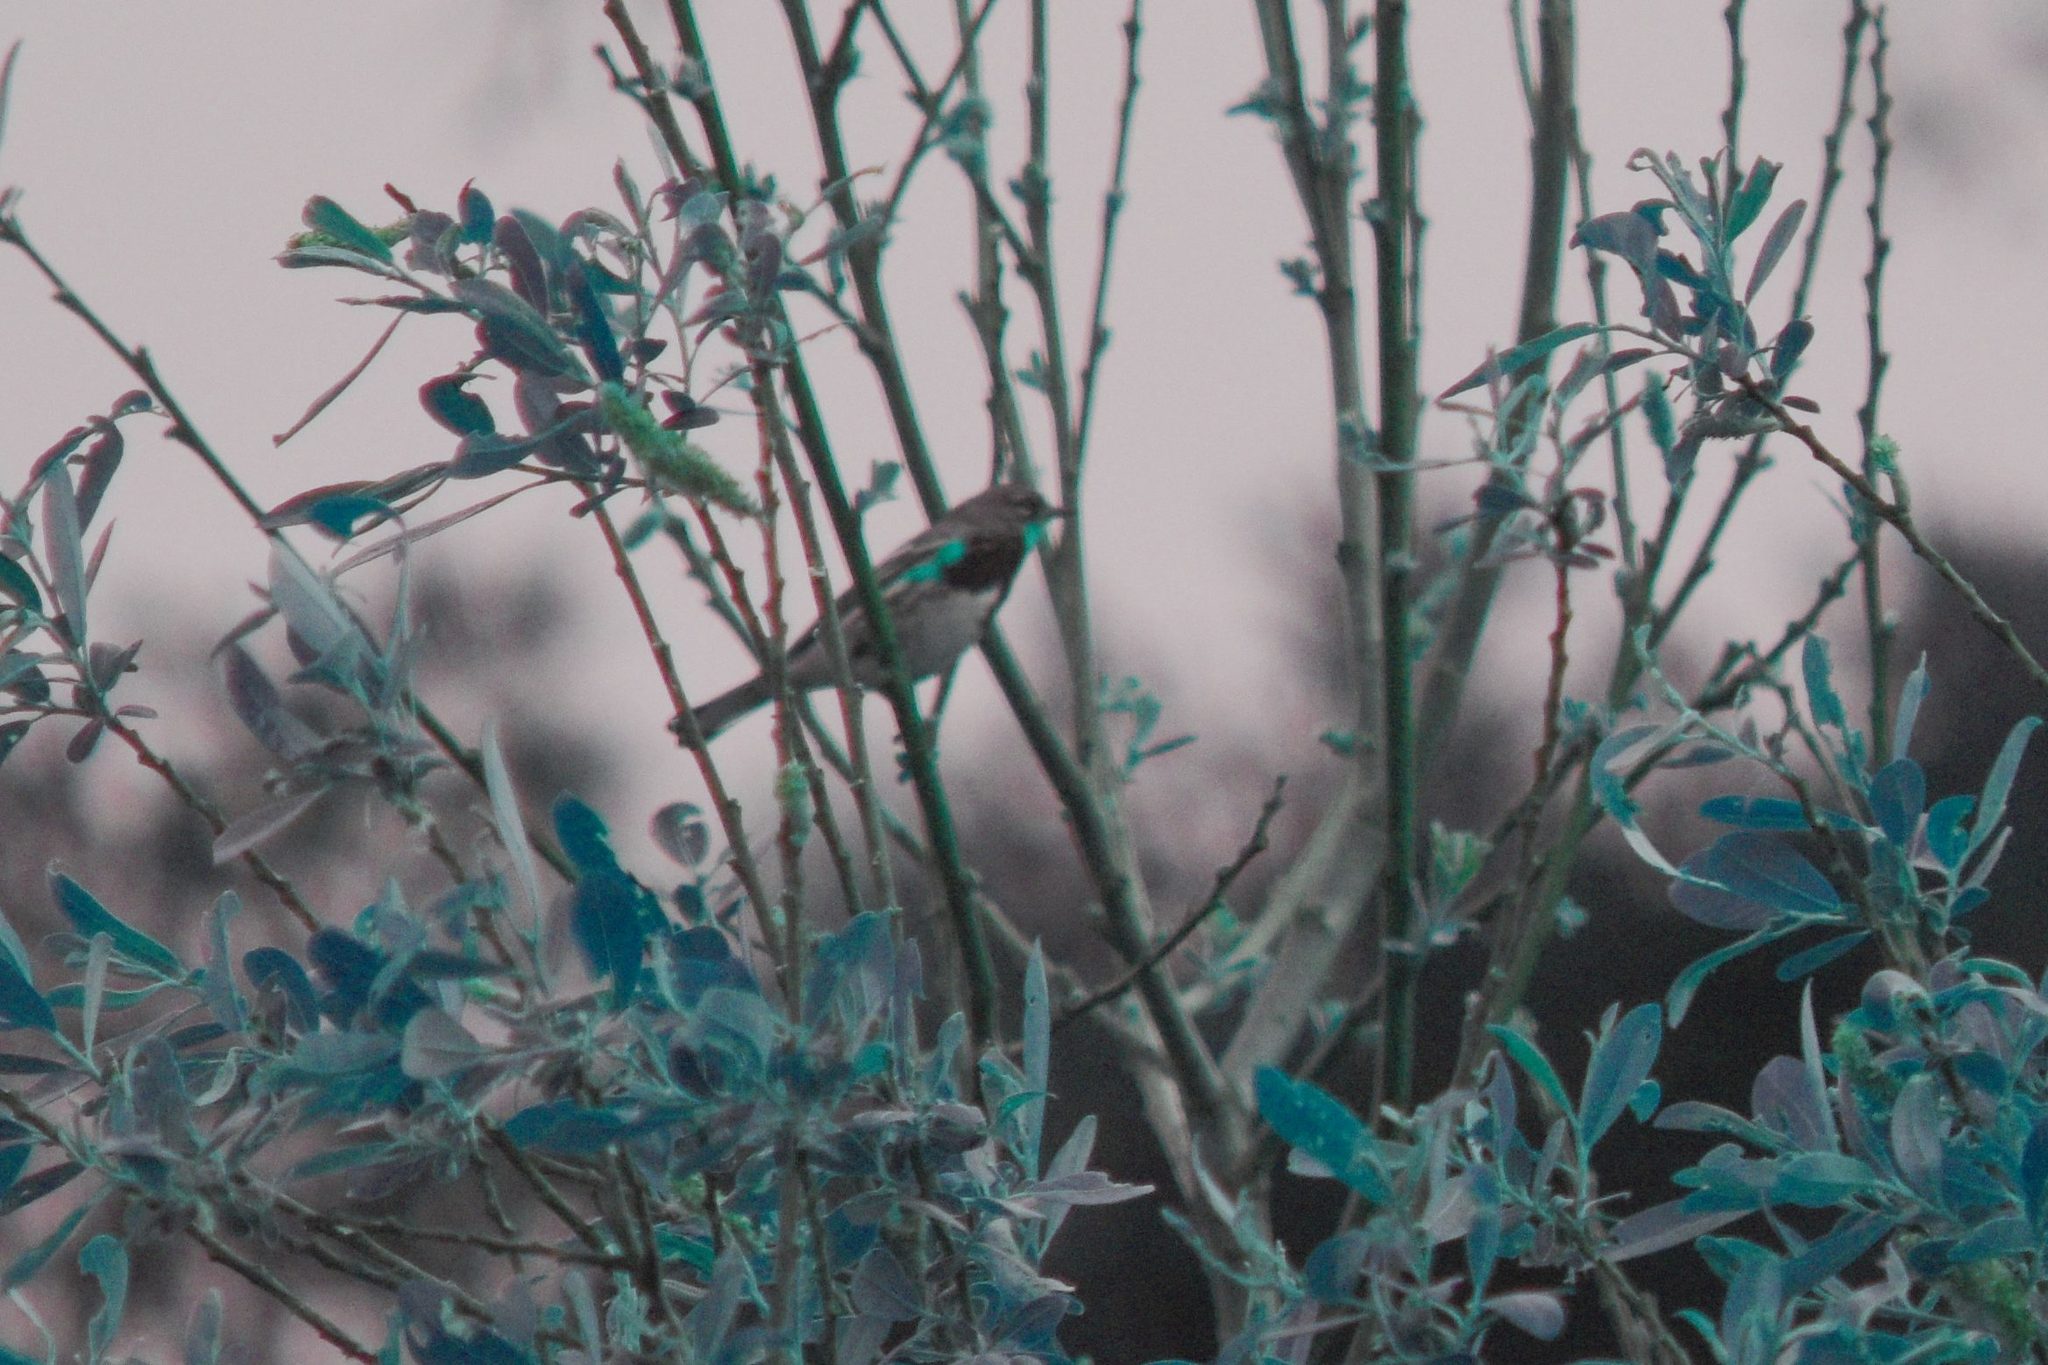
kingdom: Animalia
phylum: Chordata
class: Aves
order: Passeriformes
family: Parulidae
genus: Setophaga
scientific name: Setophaga auduboni
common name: Audubon's warbler
